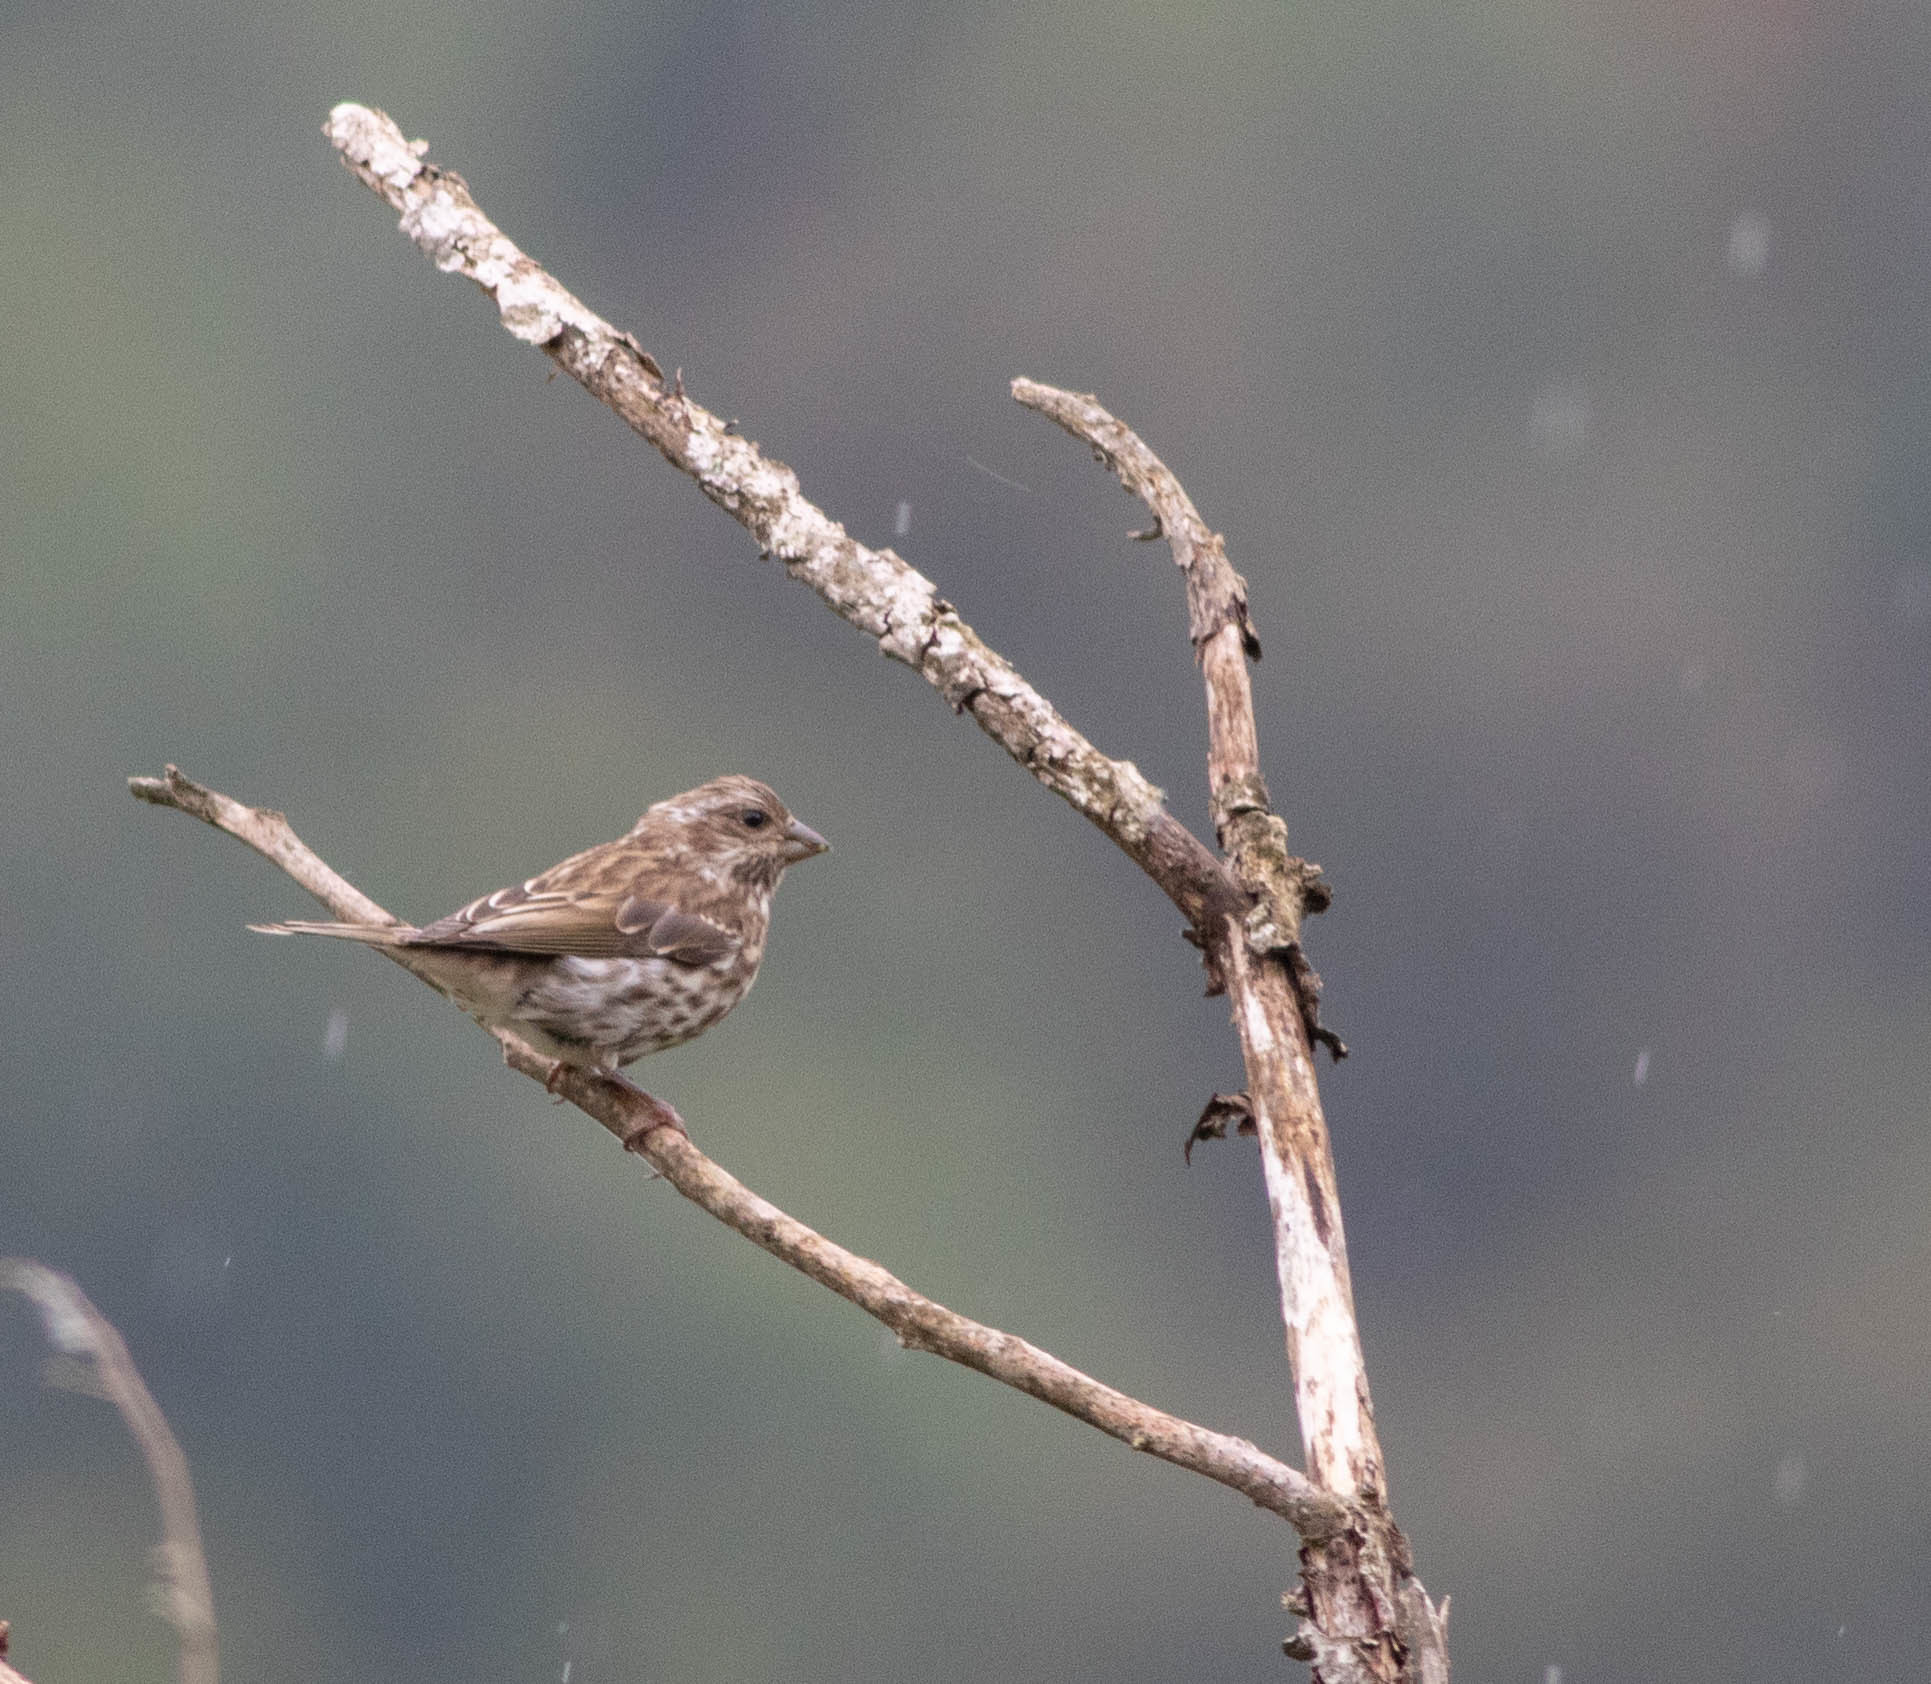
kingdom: Animalia
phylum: Chordata
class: Aves
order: Passeriformes
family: Fringillidae
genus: Haemorhous
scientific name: Haemorhous purpureus
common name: Purple finch
